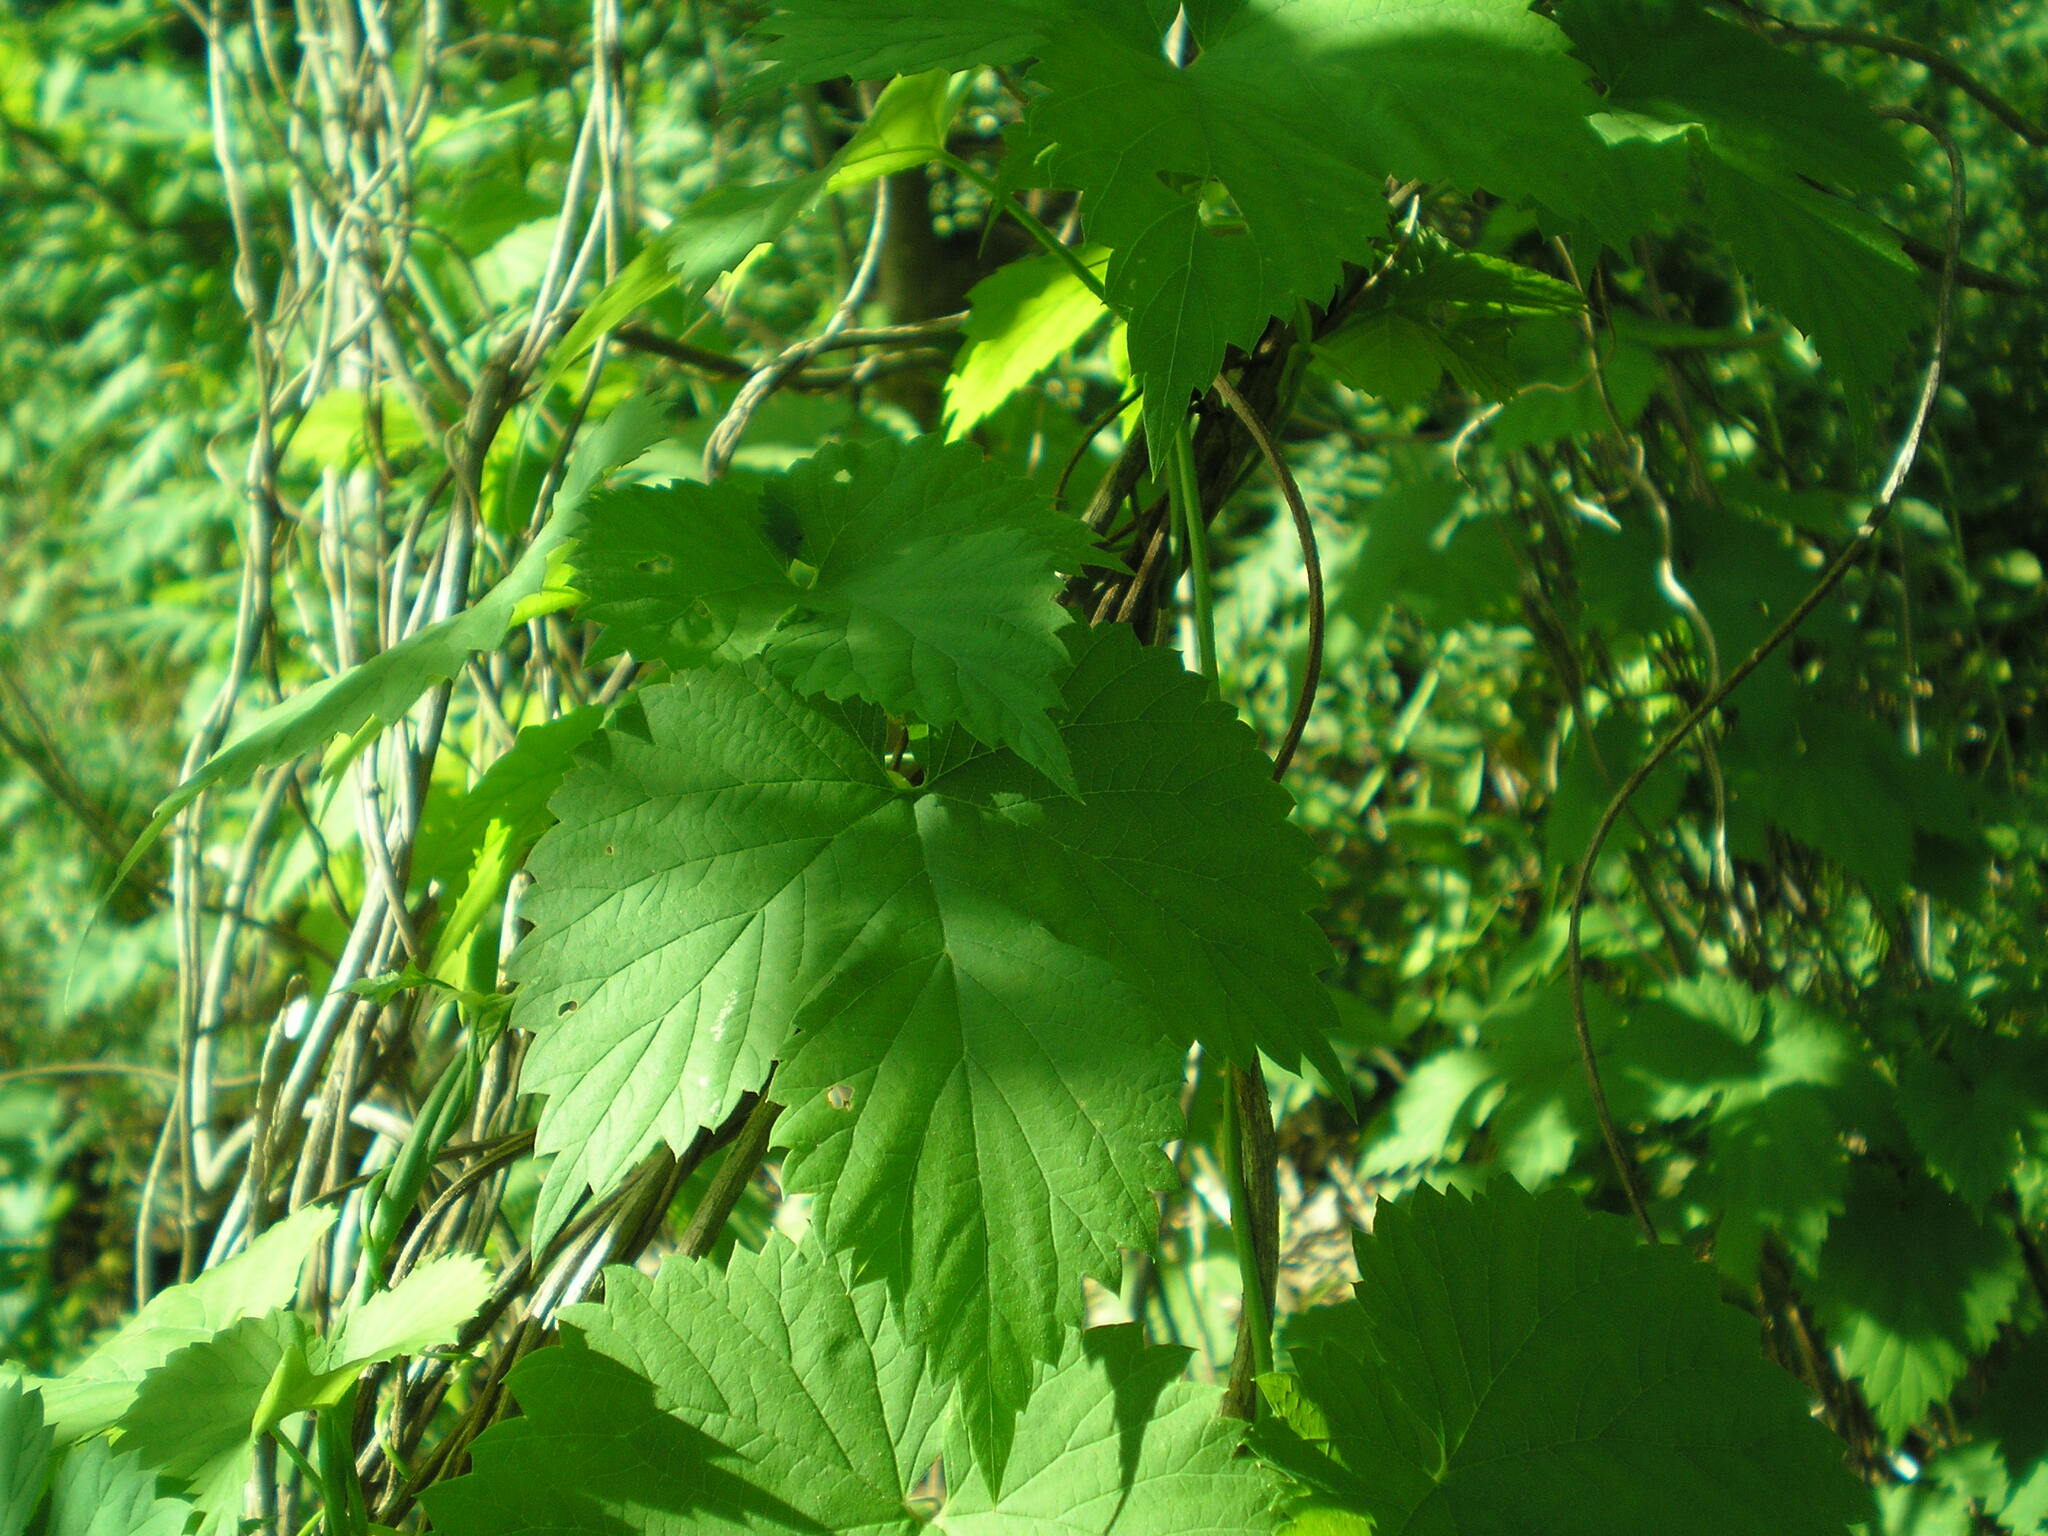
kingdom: Plantae
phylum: Tracheophyta
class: Magnoliopsida
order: Rosales
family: Cannabaceae
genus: Humulus
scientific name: Humulus lupulus
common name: Hop
